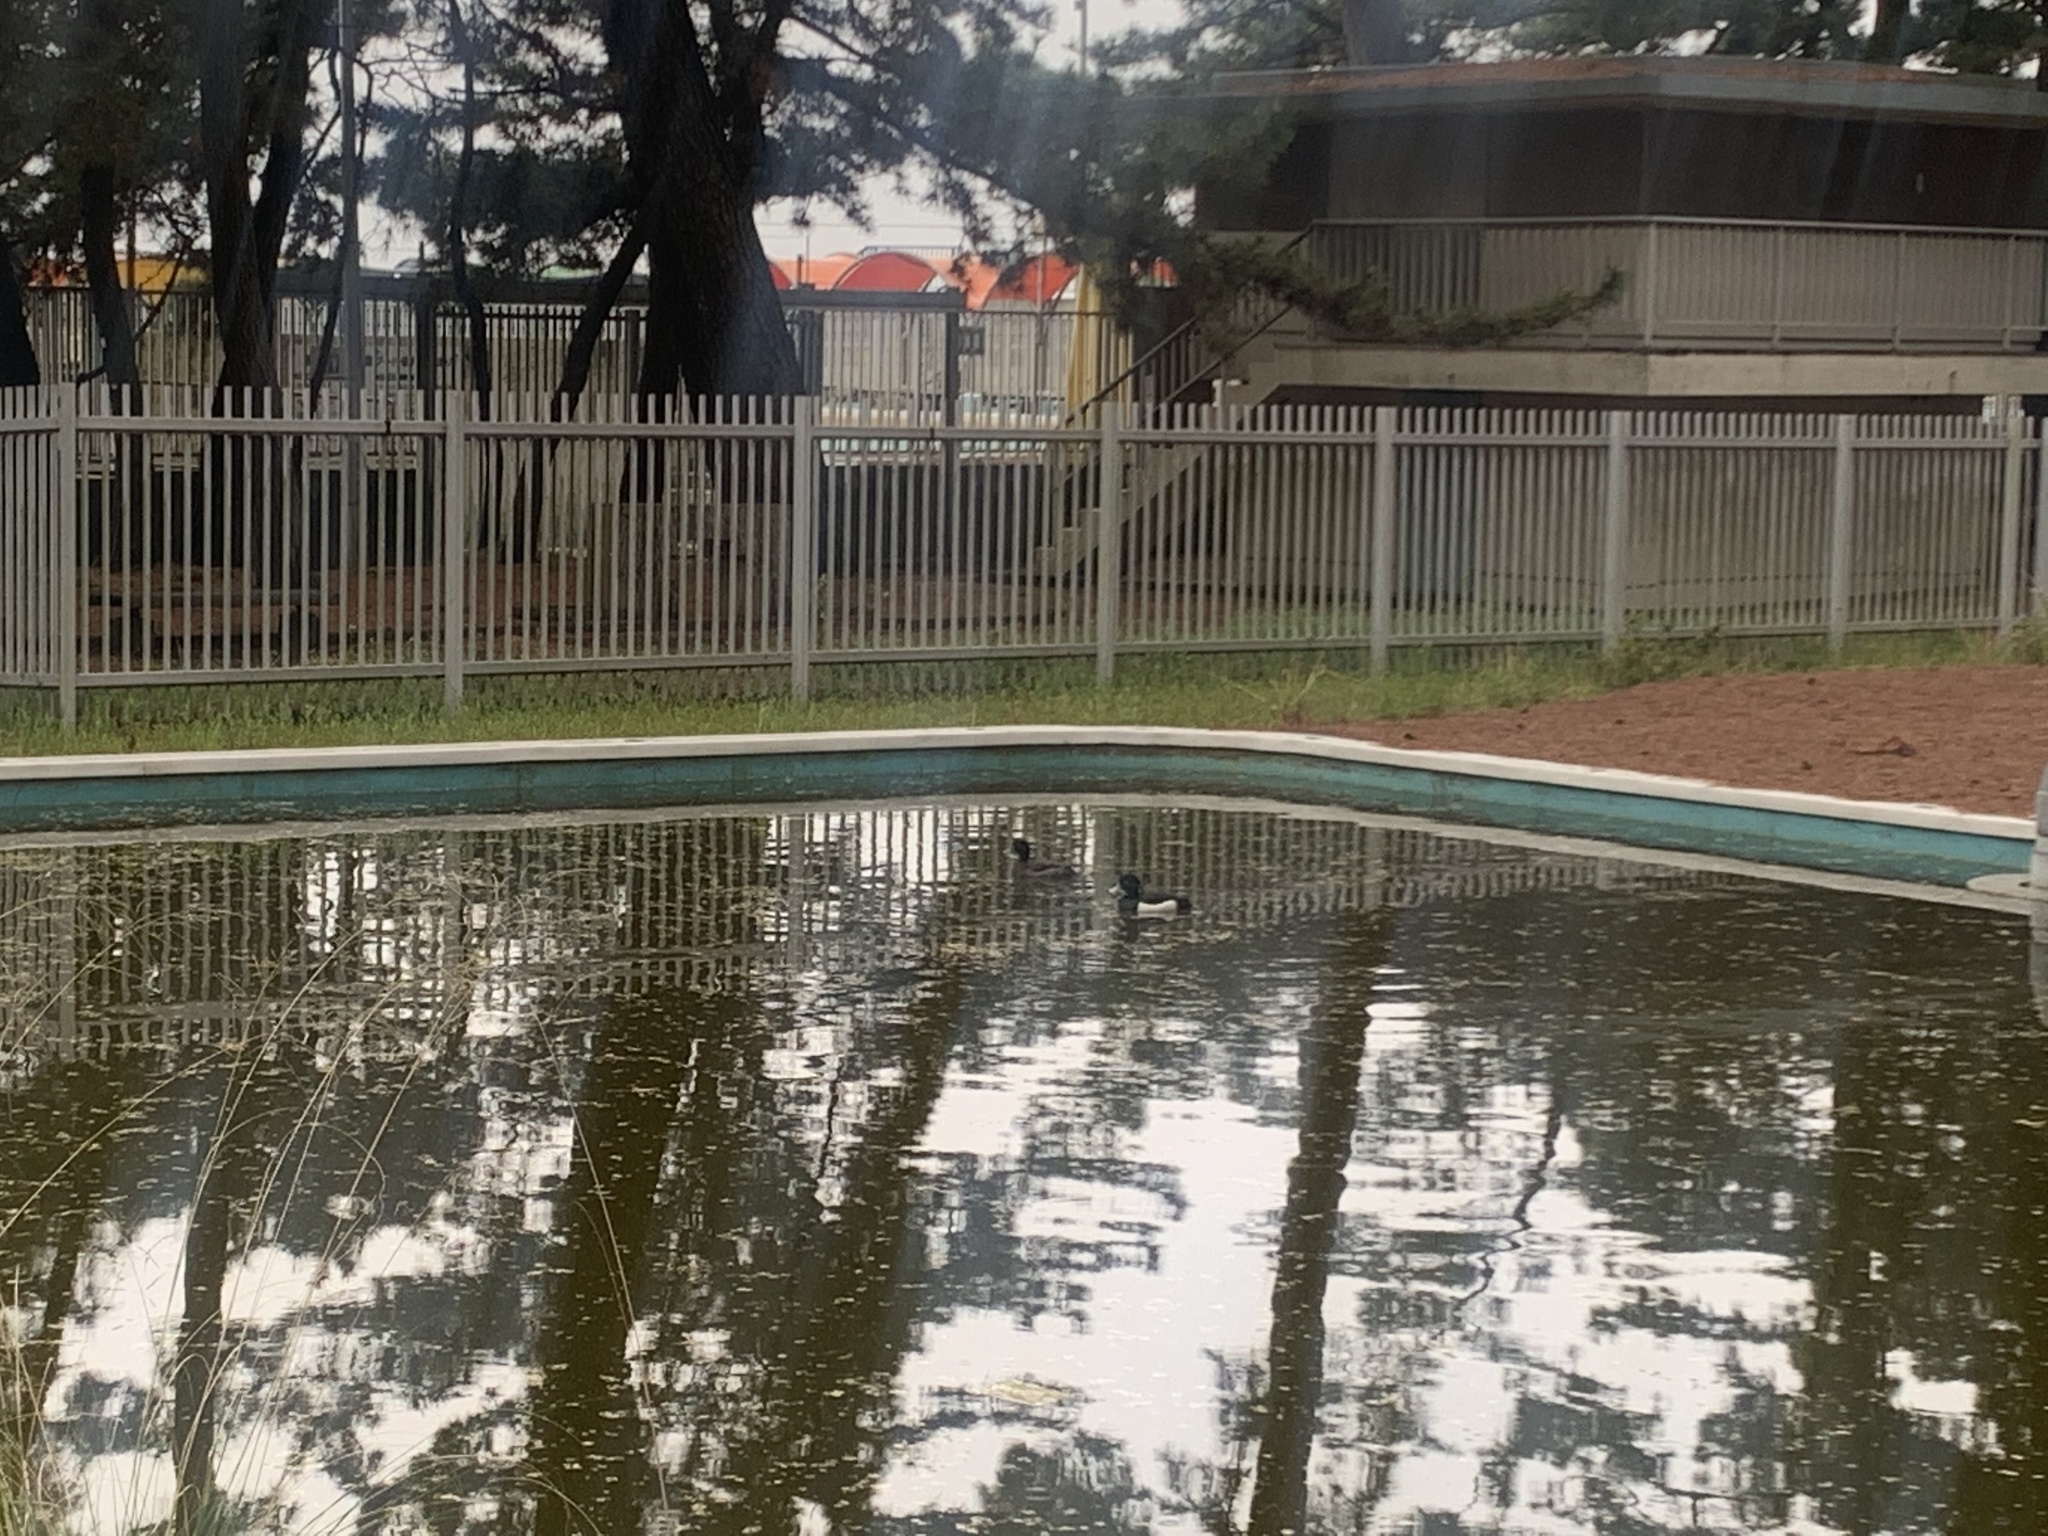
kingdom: Animalia
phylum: Chordata
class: Aves
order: Anseriformes
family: Anatidae
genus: Aythya
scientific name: Aythya fuligula
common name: Tufted duck
